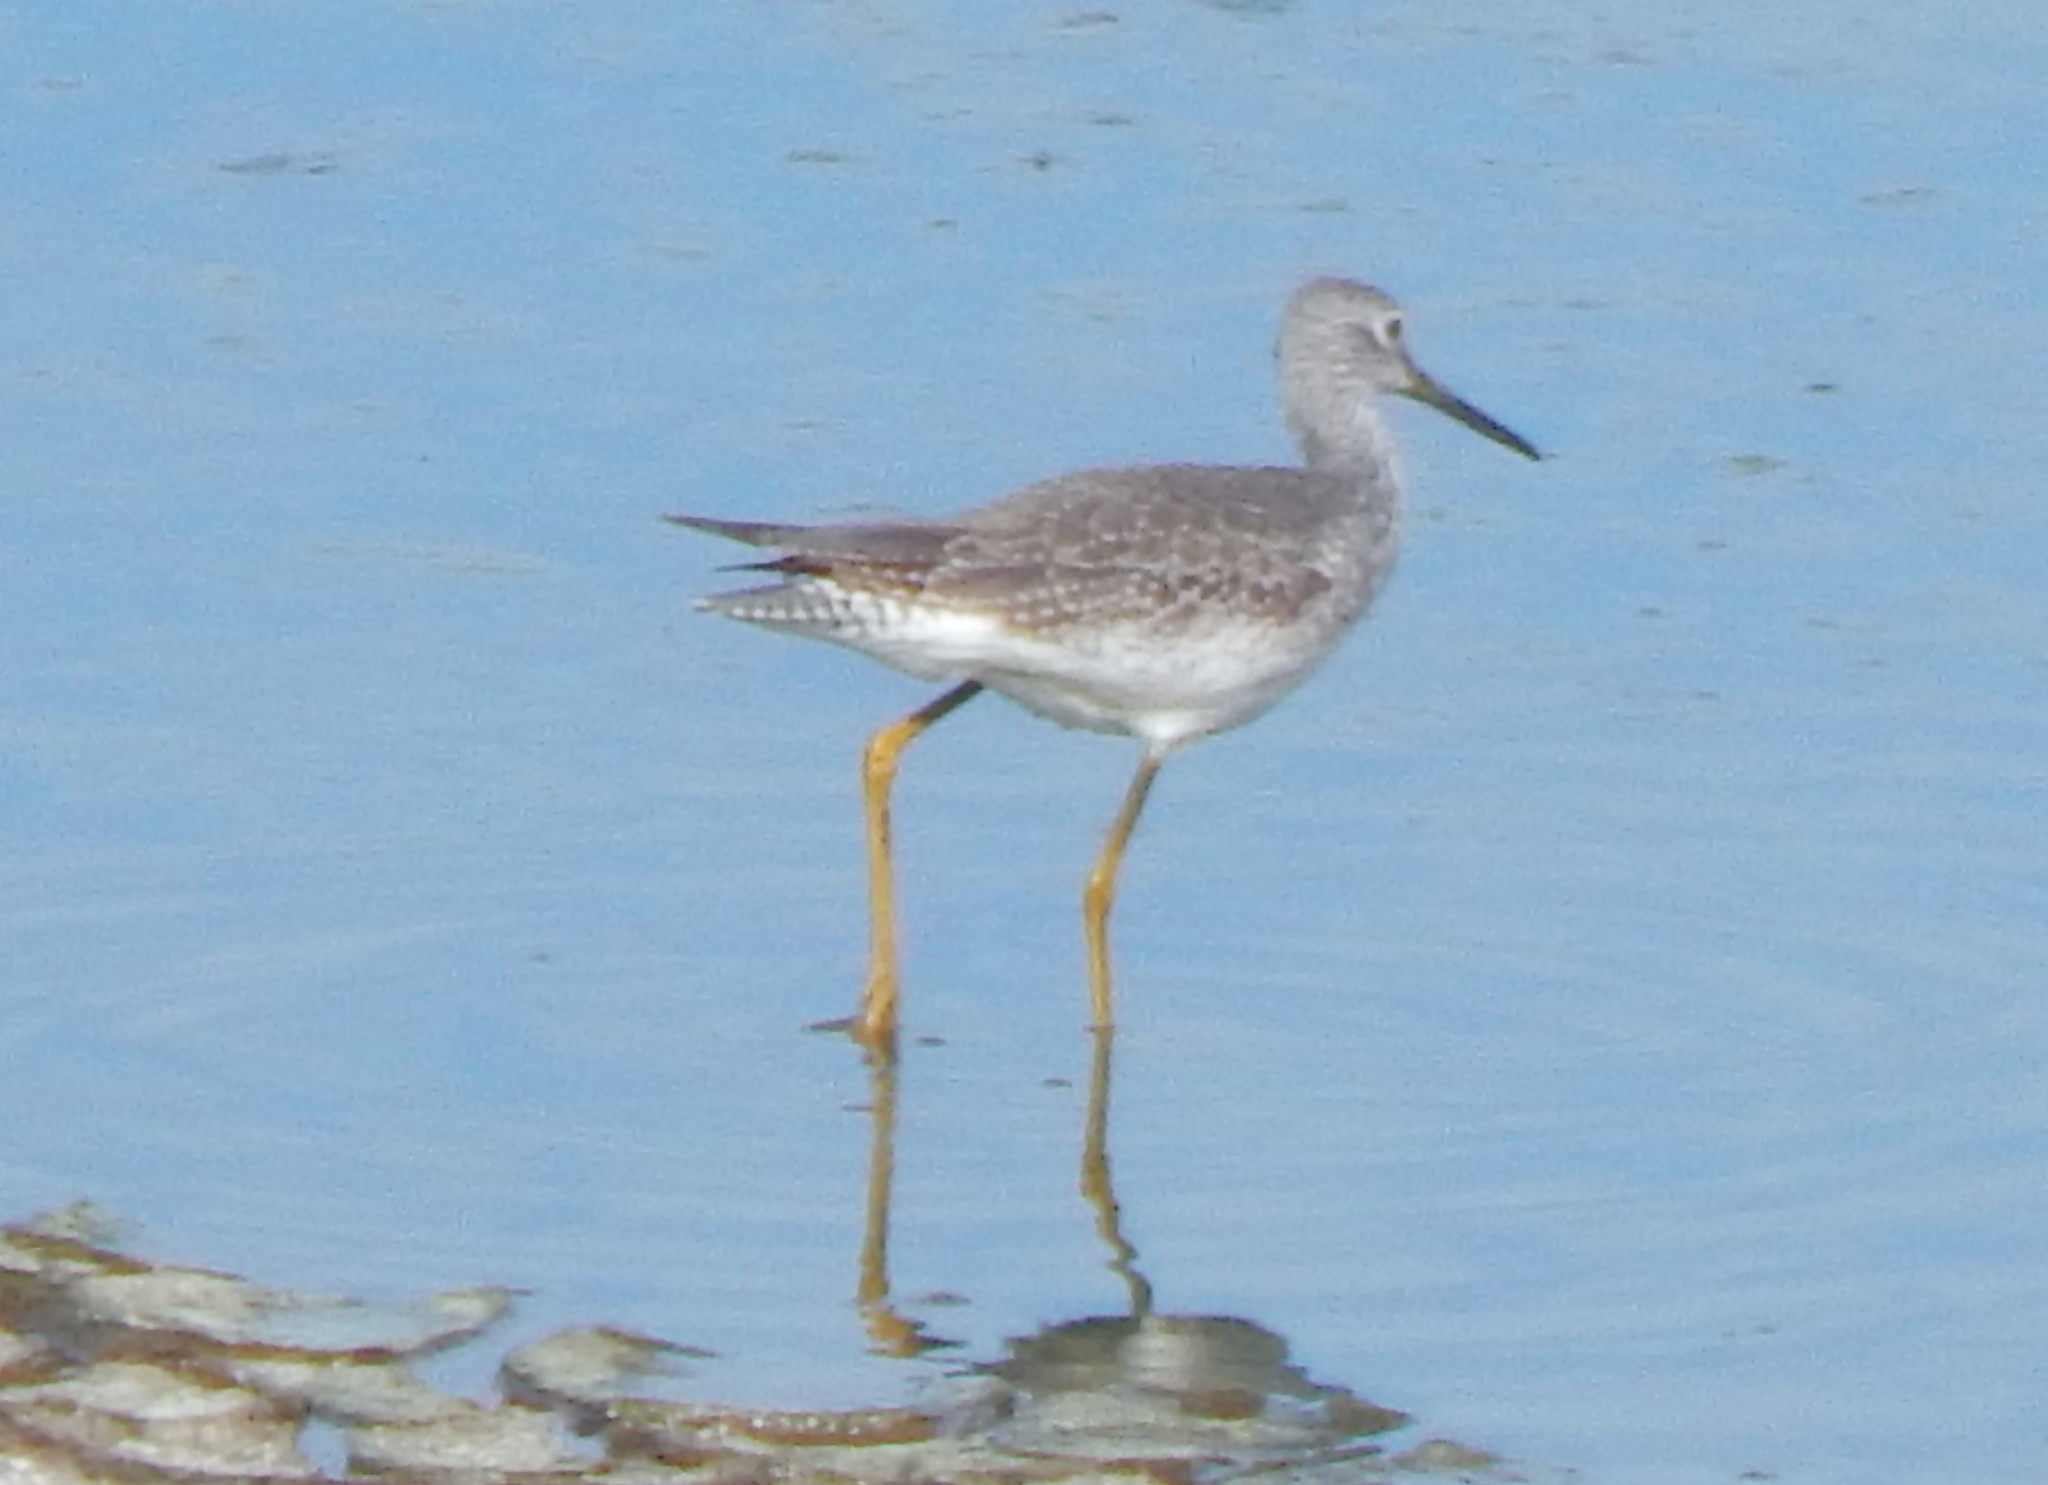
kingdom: Animalia
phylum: Chordata
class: Aves
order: Charadriiformes
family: Scolopacidae
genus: Tringa
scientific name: Tringa melanoleuca
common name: Greater yellowlegs
